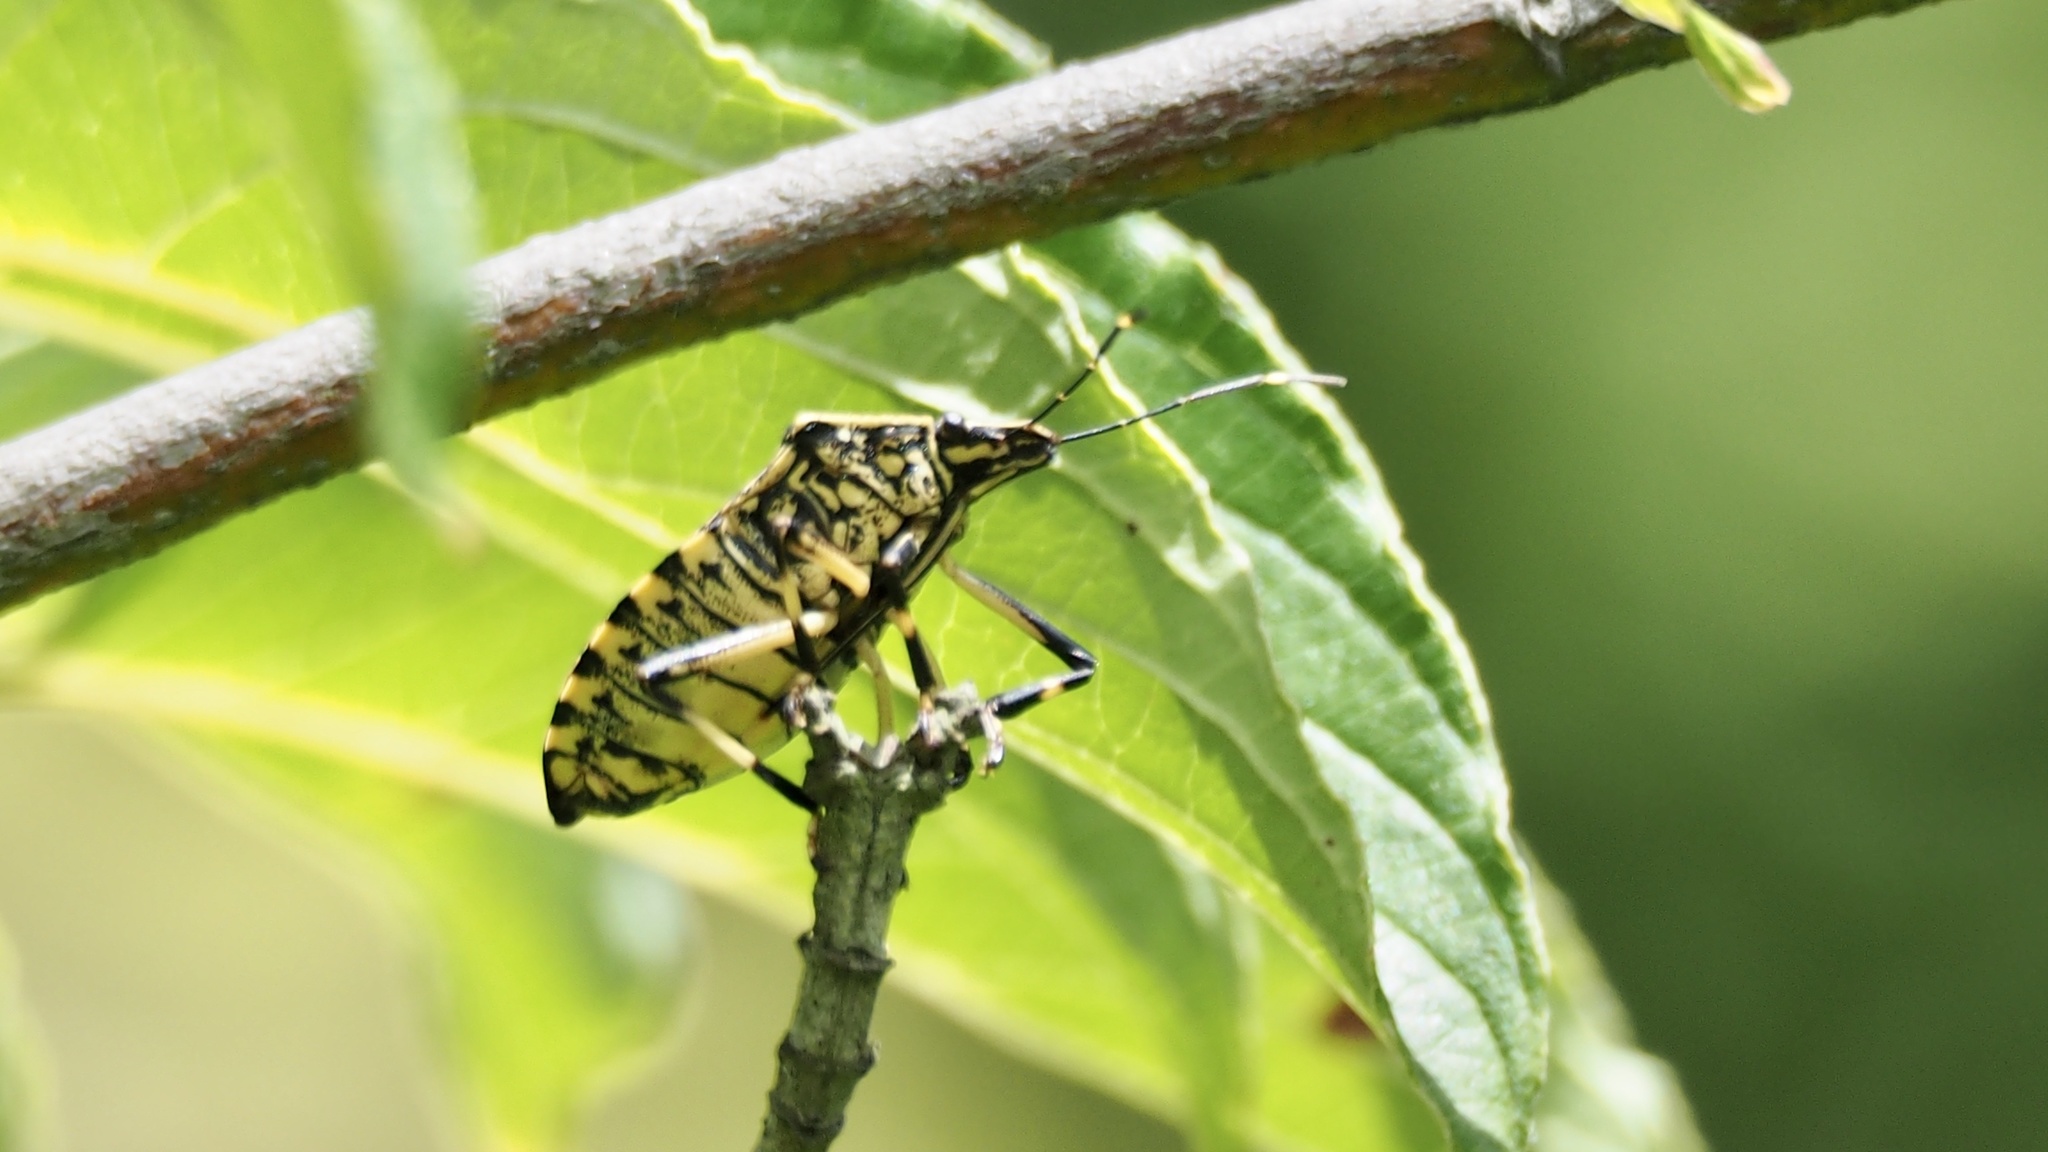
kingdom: Animalia
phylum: Arthropoda
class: Insecta
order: Hemiptera
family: Pentatomidae
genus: Erthesina
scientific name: Erthesina fullo
